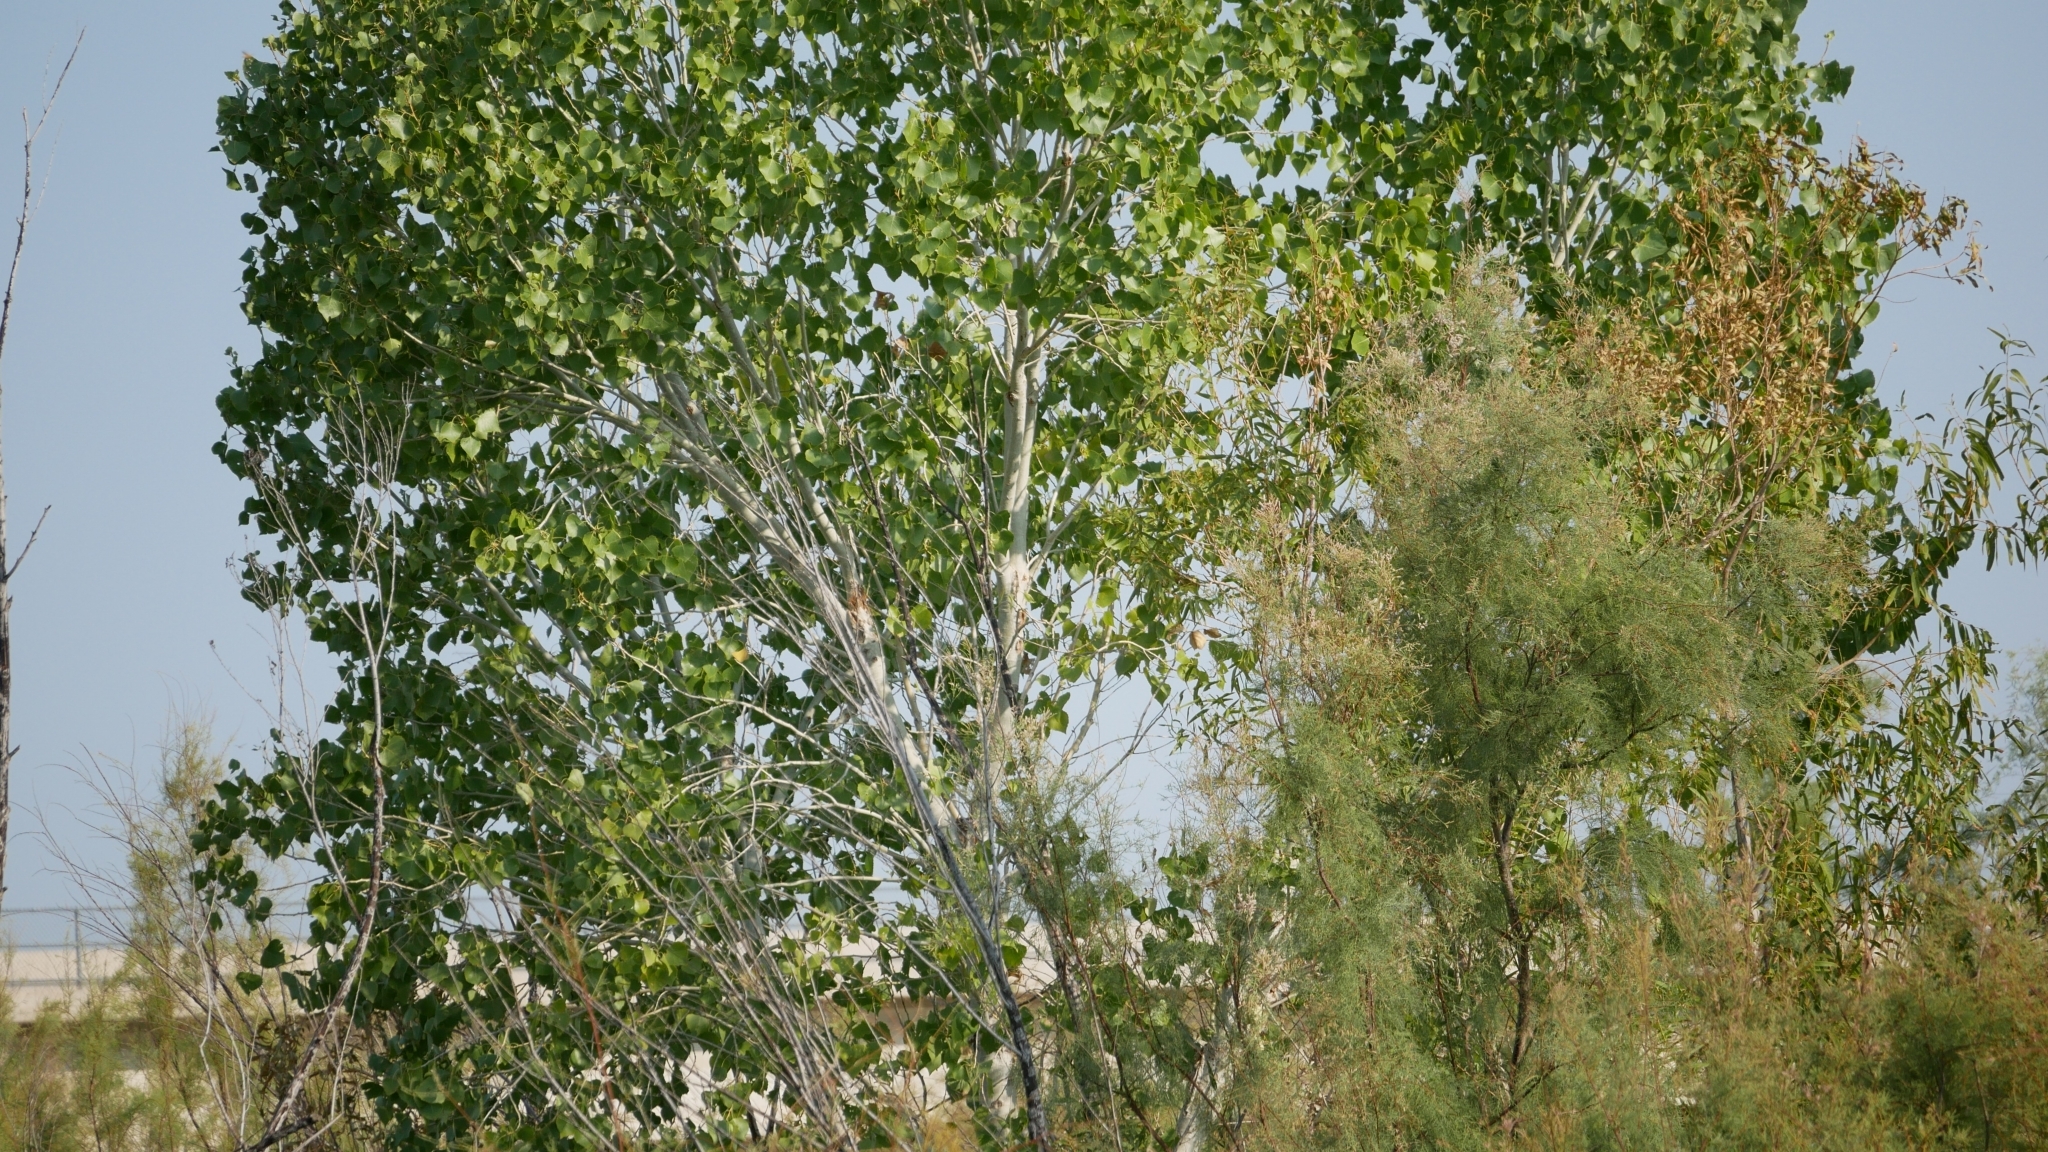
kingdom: Plantae
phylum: Tracheophyta
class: Magnoliopsida
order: Malpighiales
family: Salicaceae
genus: Populus
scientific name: Populus fremontii
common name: Fremont's cottonwood
